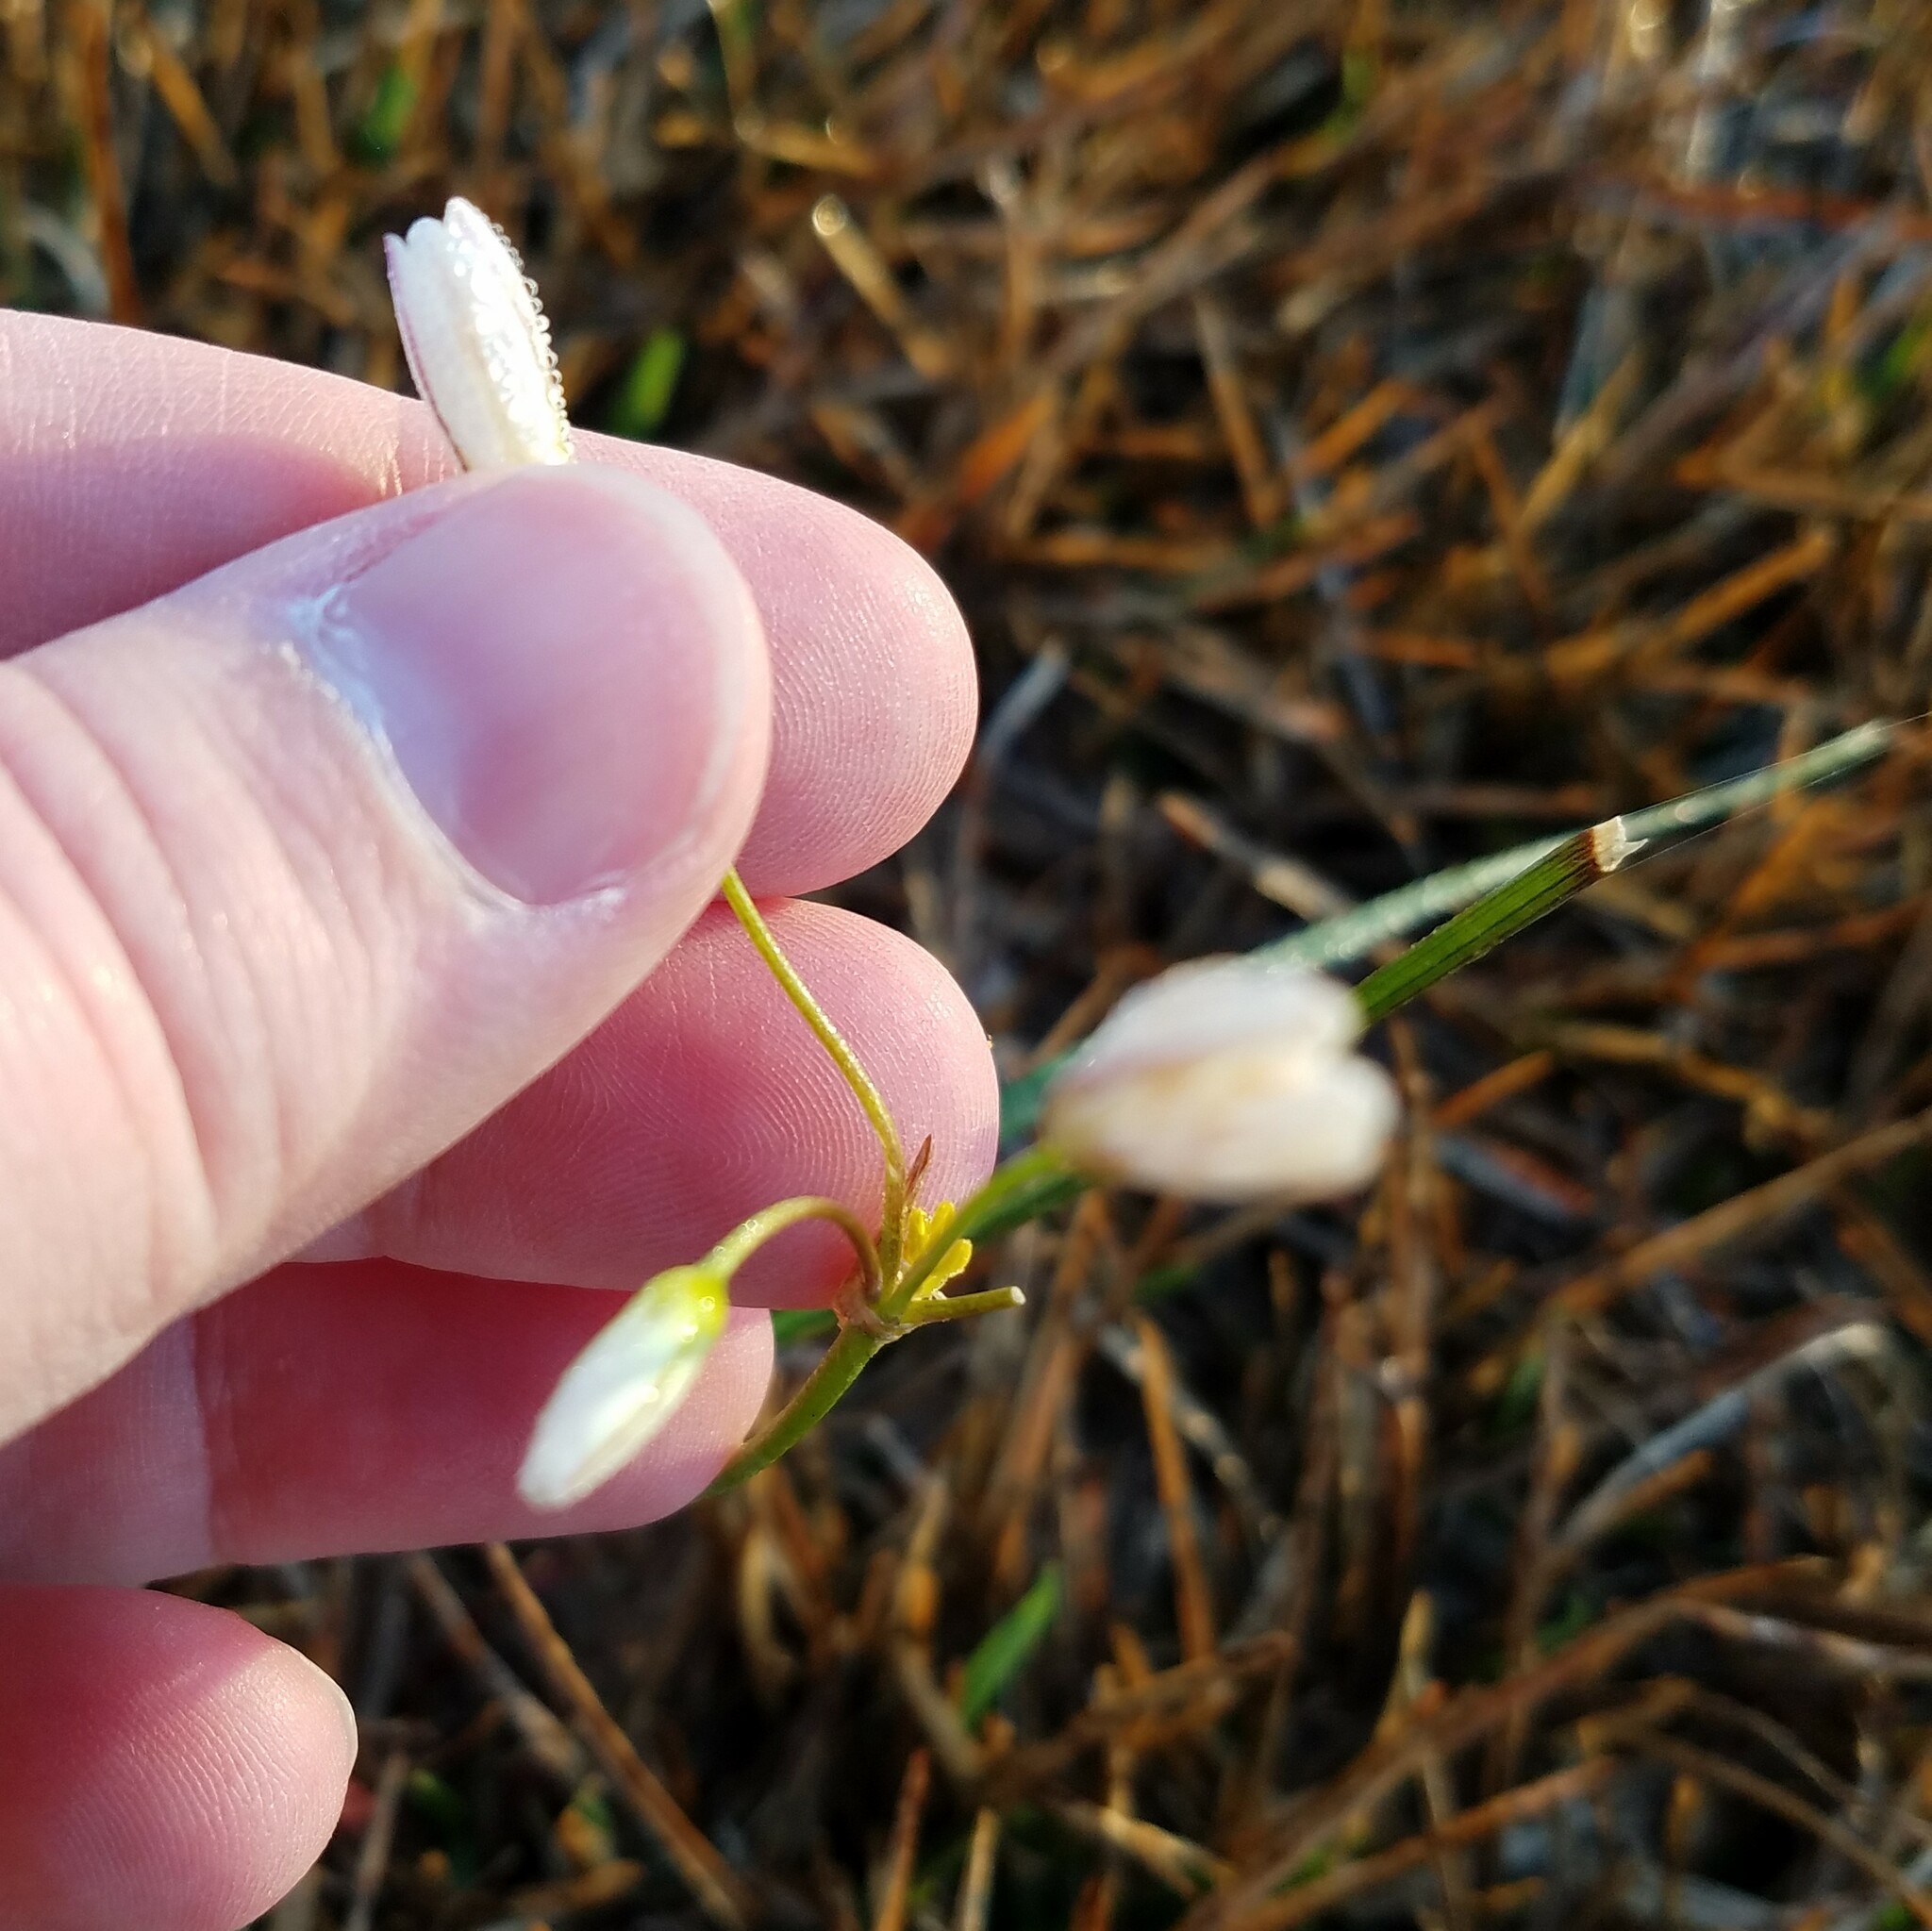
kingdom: Plantae
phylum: Tracheophyta
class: Liliopsida
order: Asparagales
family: Amaryllidaceae
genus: Nothoscordum
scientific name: Nothoscordum bivalve
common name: Crow-poison
